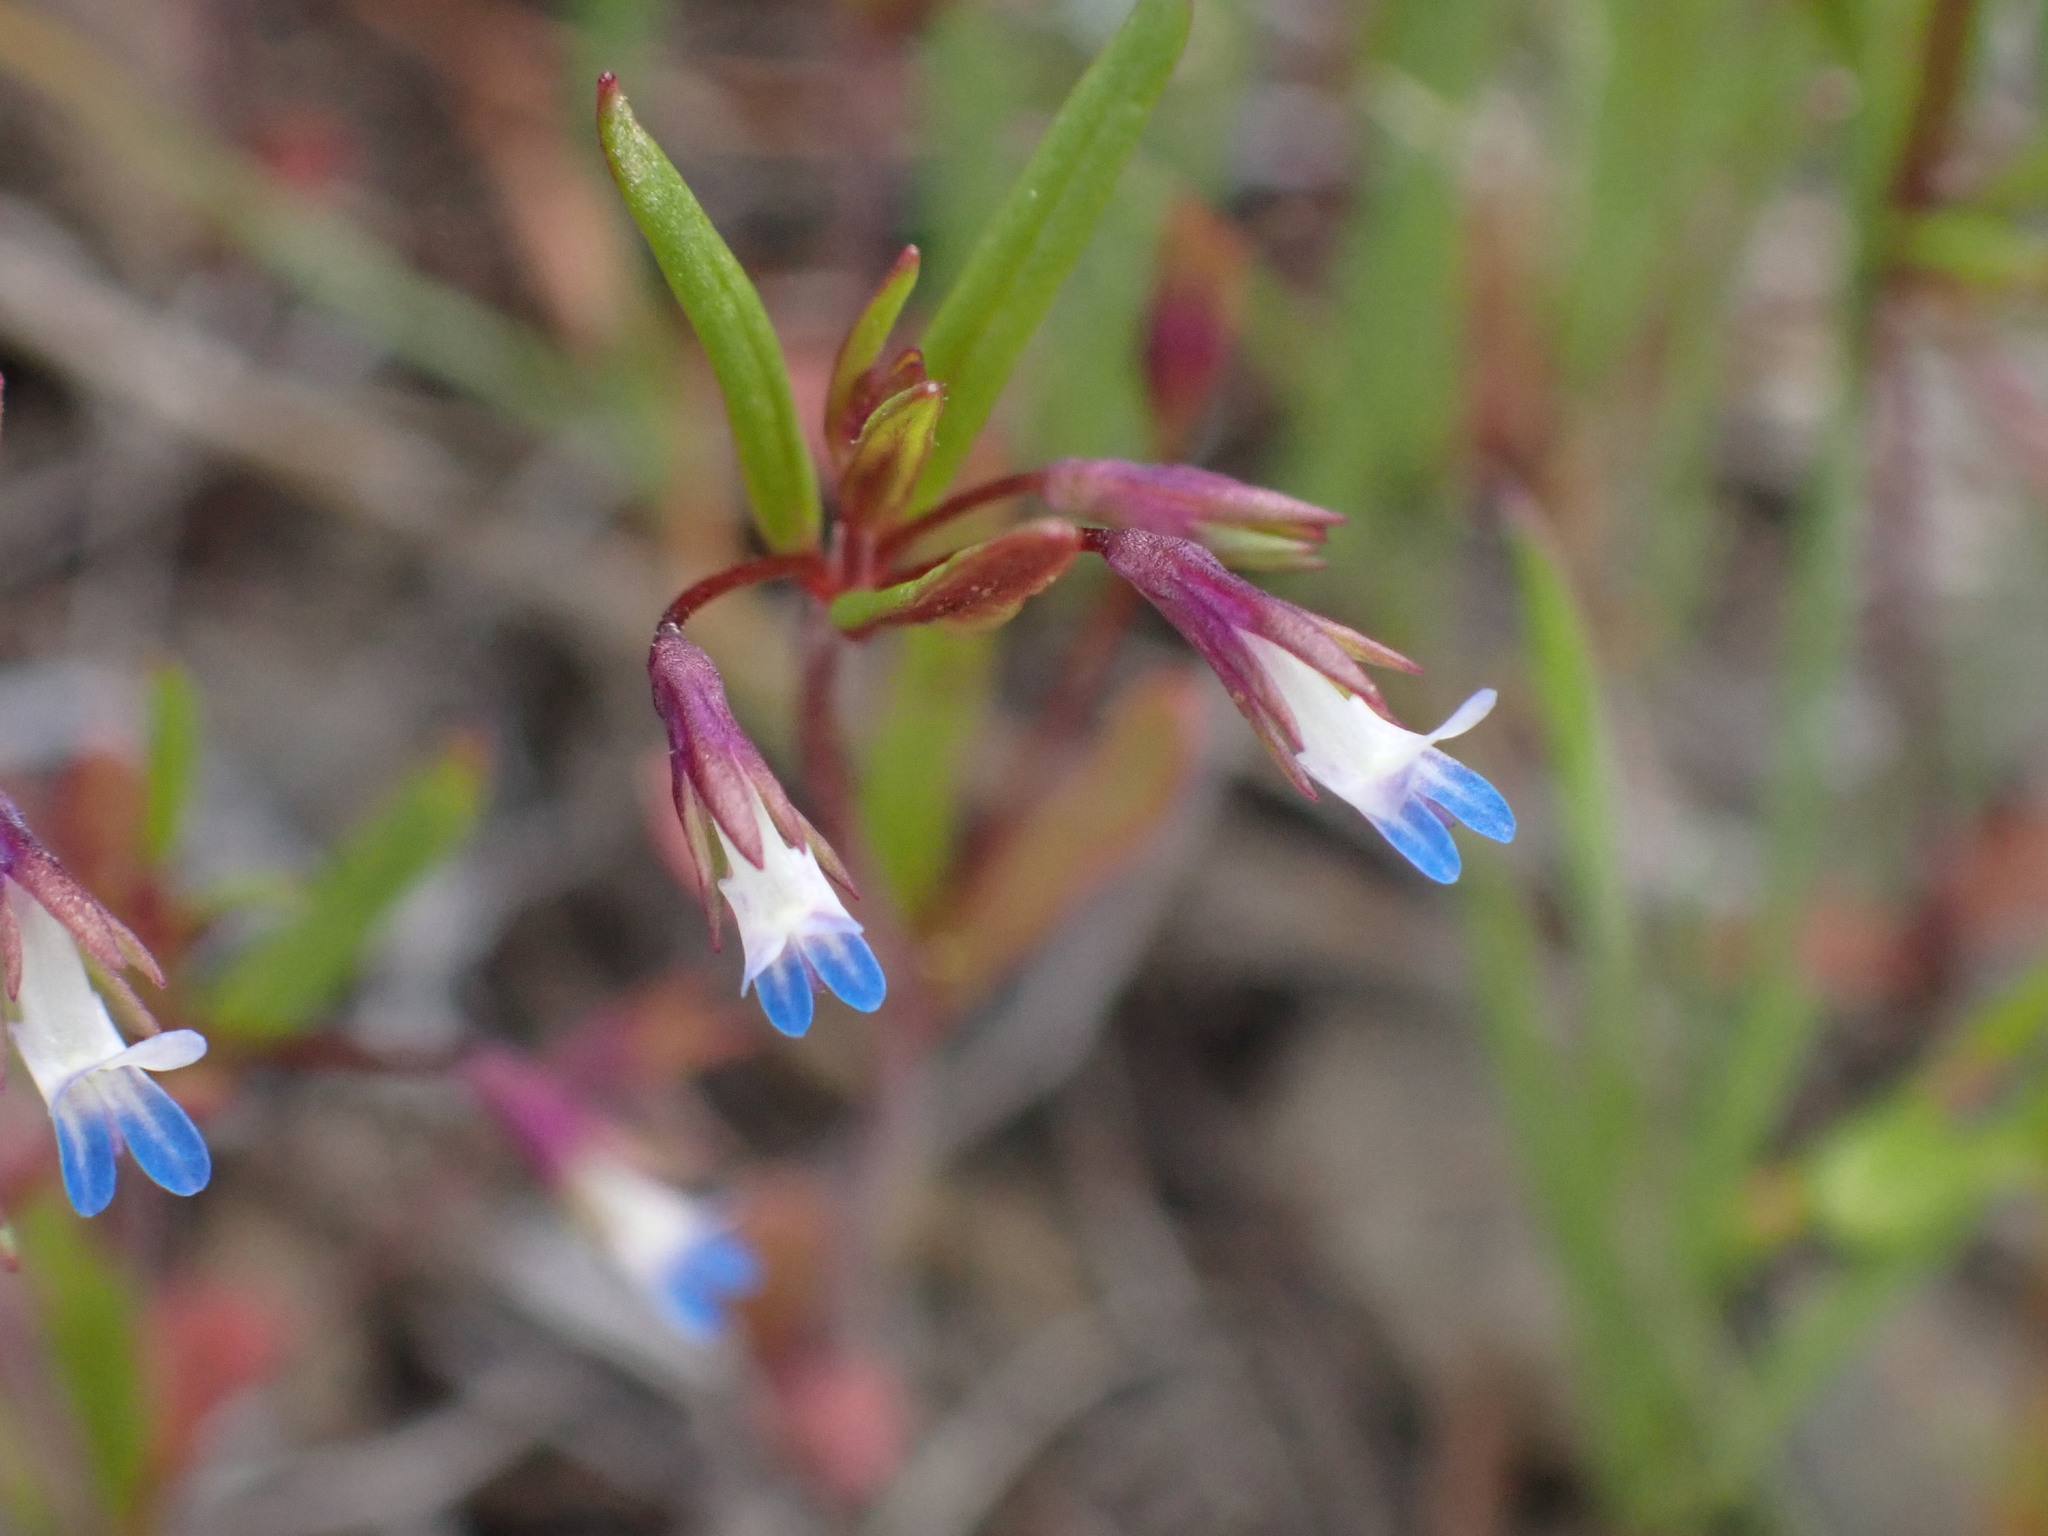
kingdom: Plantae
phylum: Tracheophyta
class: Magnoliopsida
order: Lamiales
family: Plantaginaceae
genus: Collinsia
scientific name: Collinsia parviflora
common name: Blue-lips
